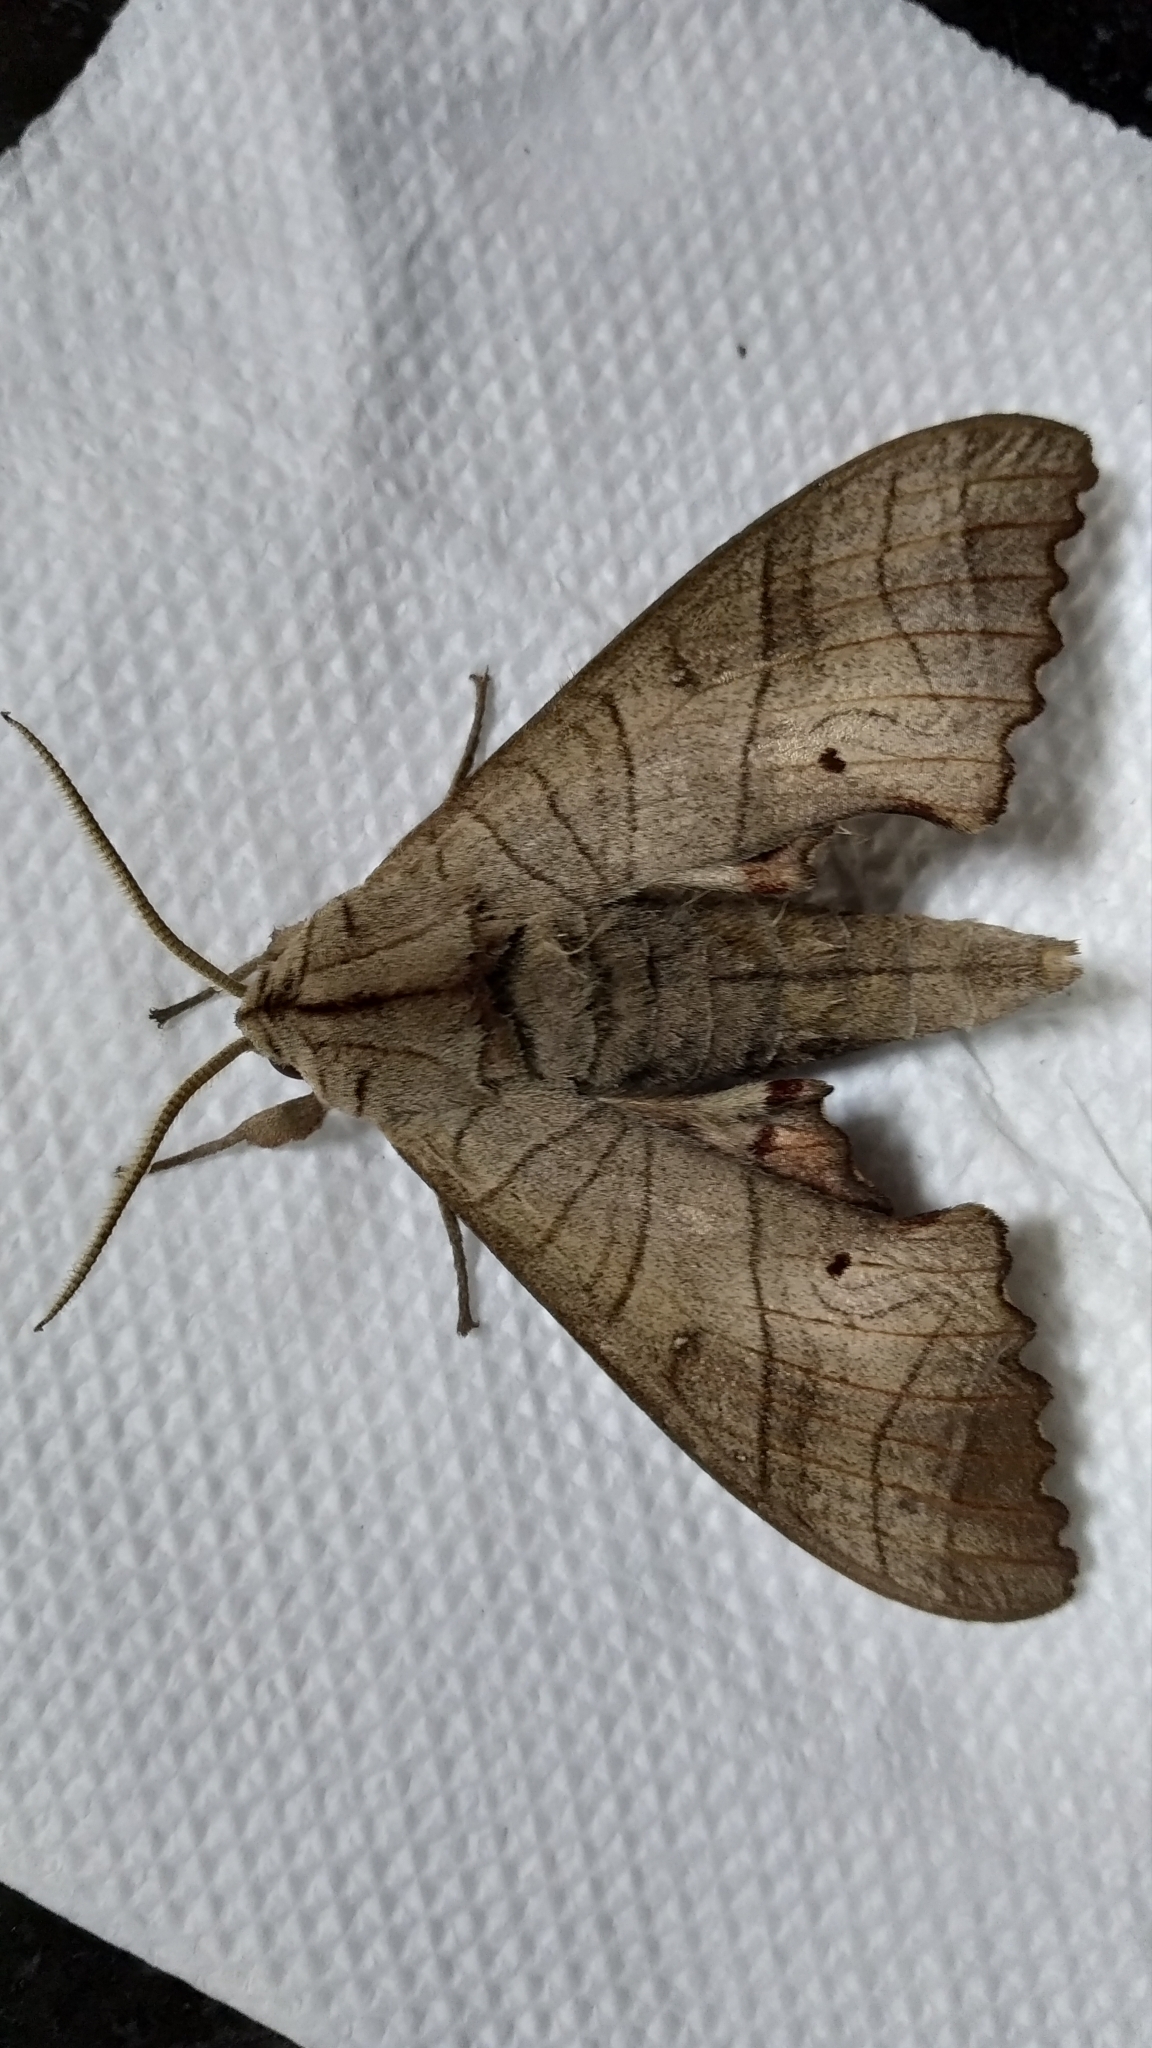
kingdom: Animalia
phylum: Arthropoda
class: Insecta
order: Lepidoptera
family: Sphingidae
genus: Marumba
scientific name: Marumba dyras
